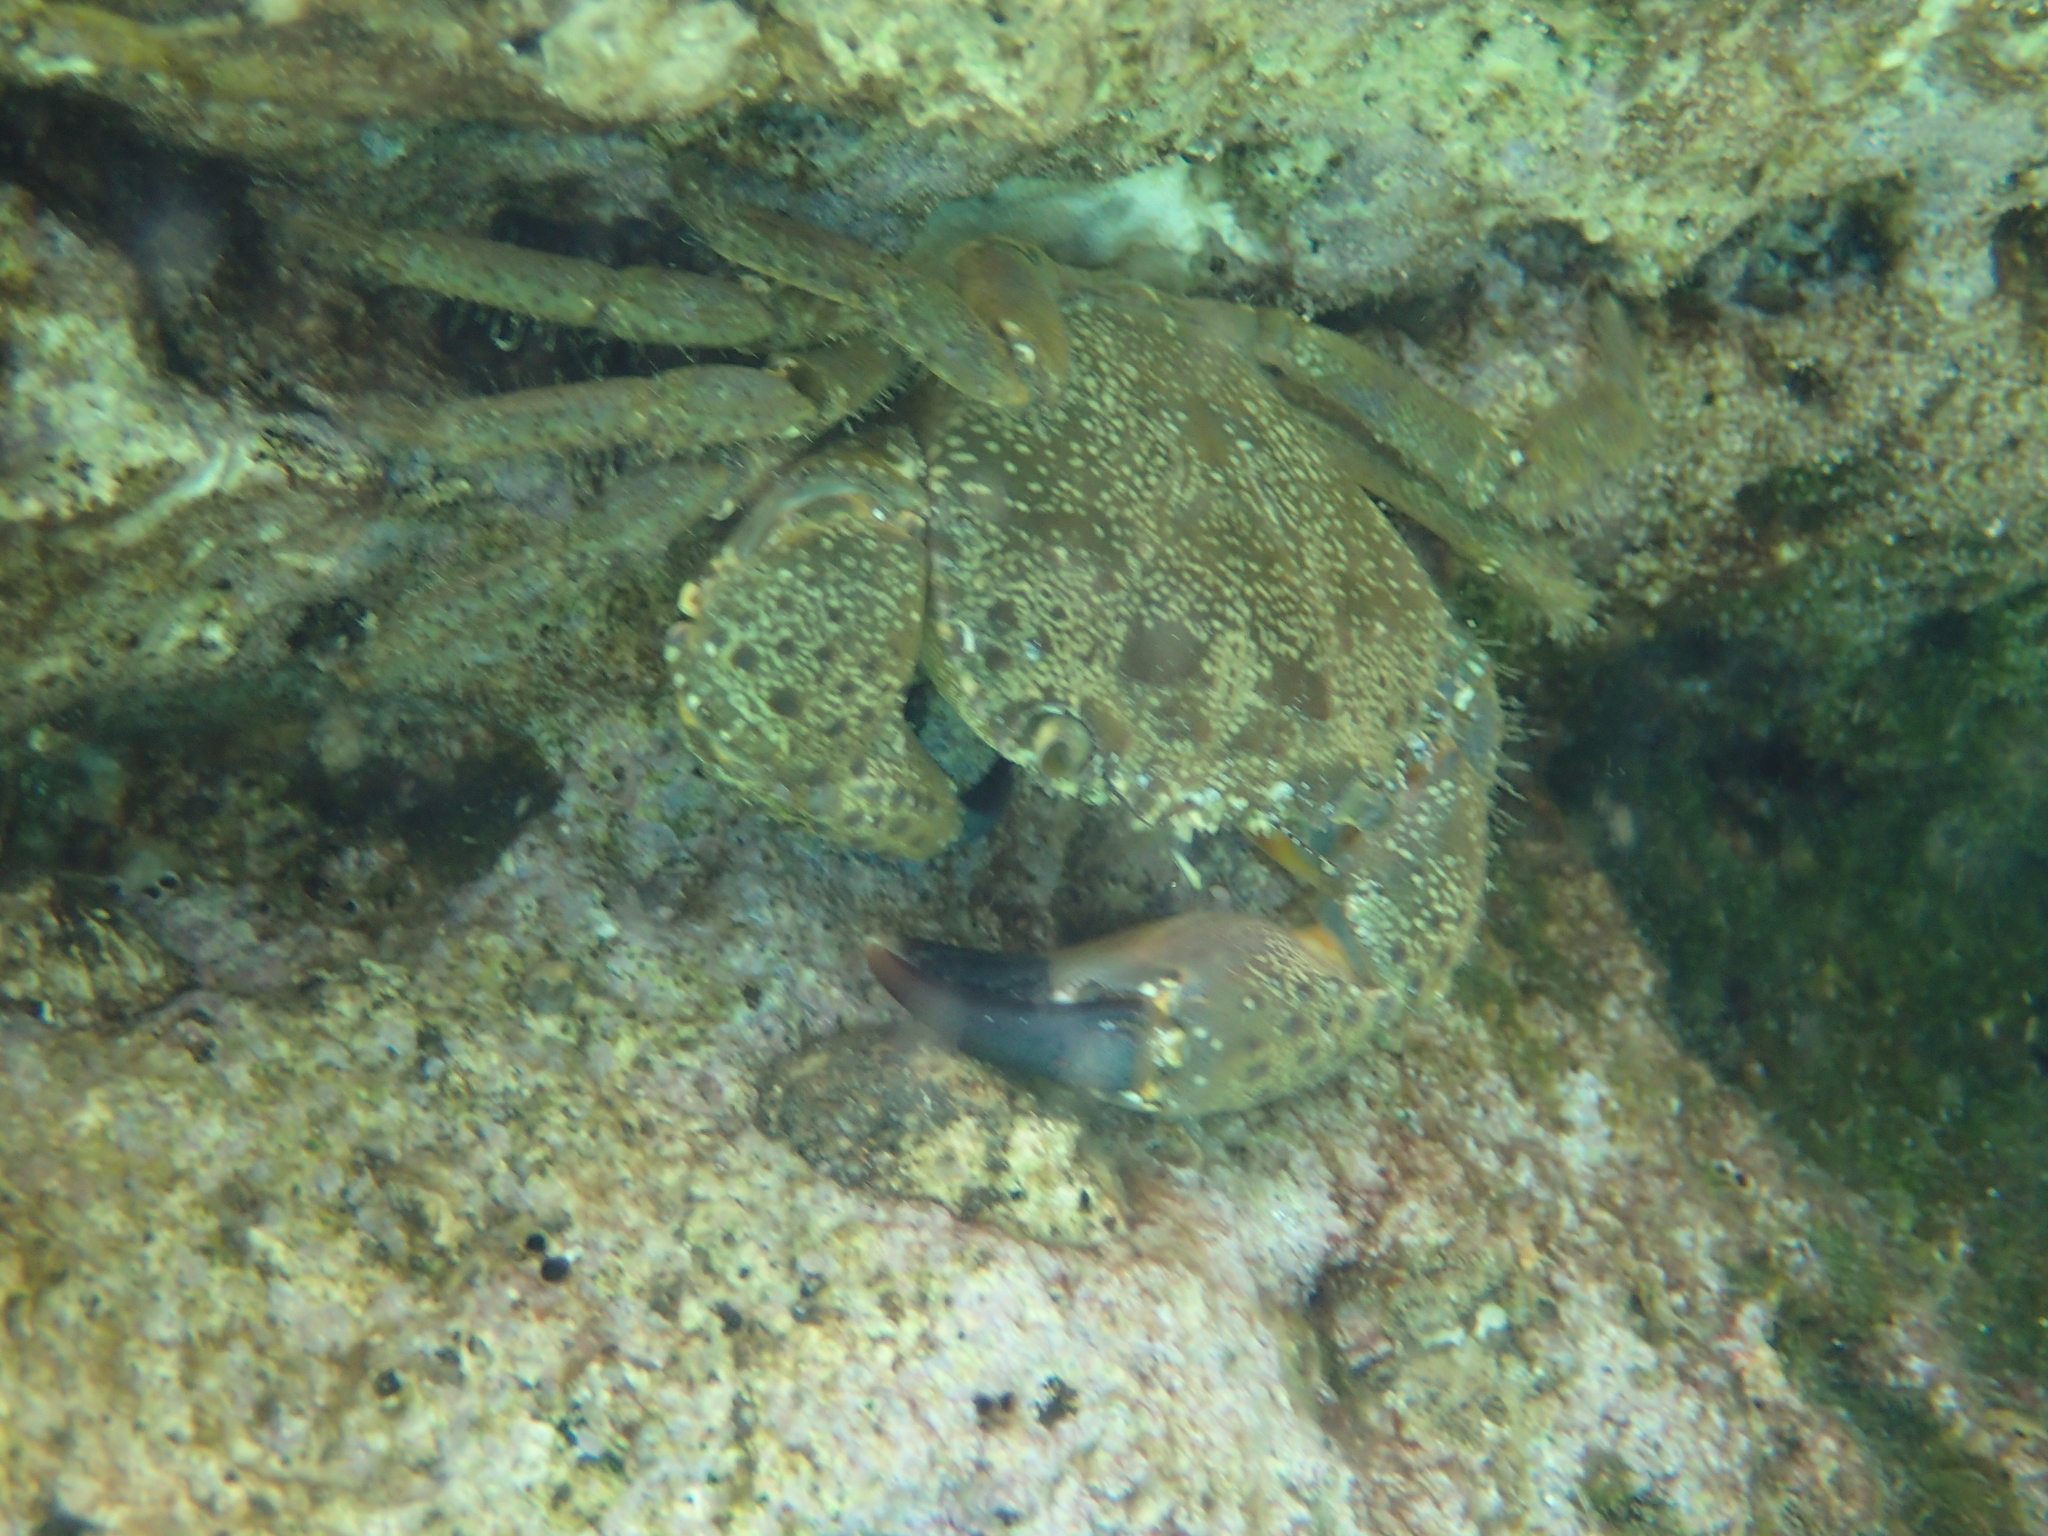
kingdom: Animalia
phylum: Arthropoda
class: Malacostraca
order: Decapoda
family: Eriphiidae
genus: Eriphia
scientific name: Eriphia verrucosa
